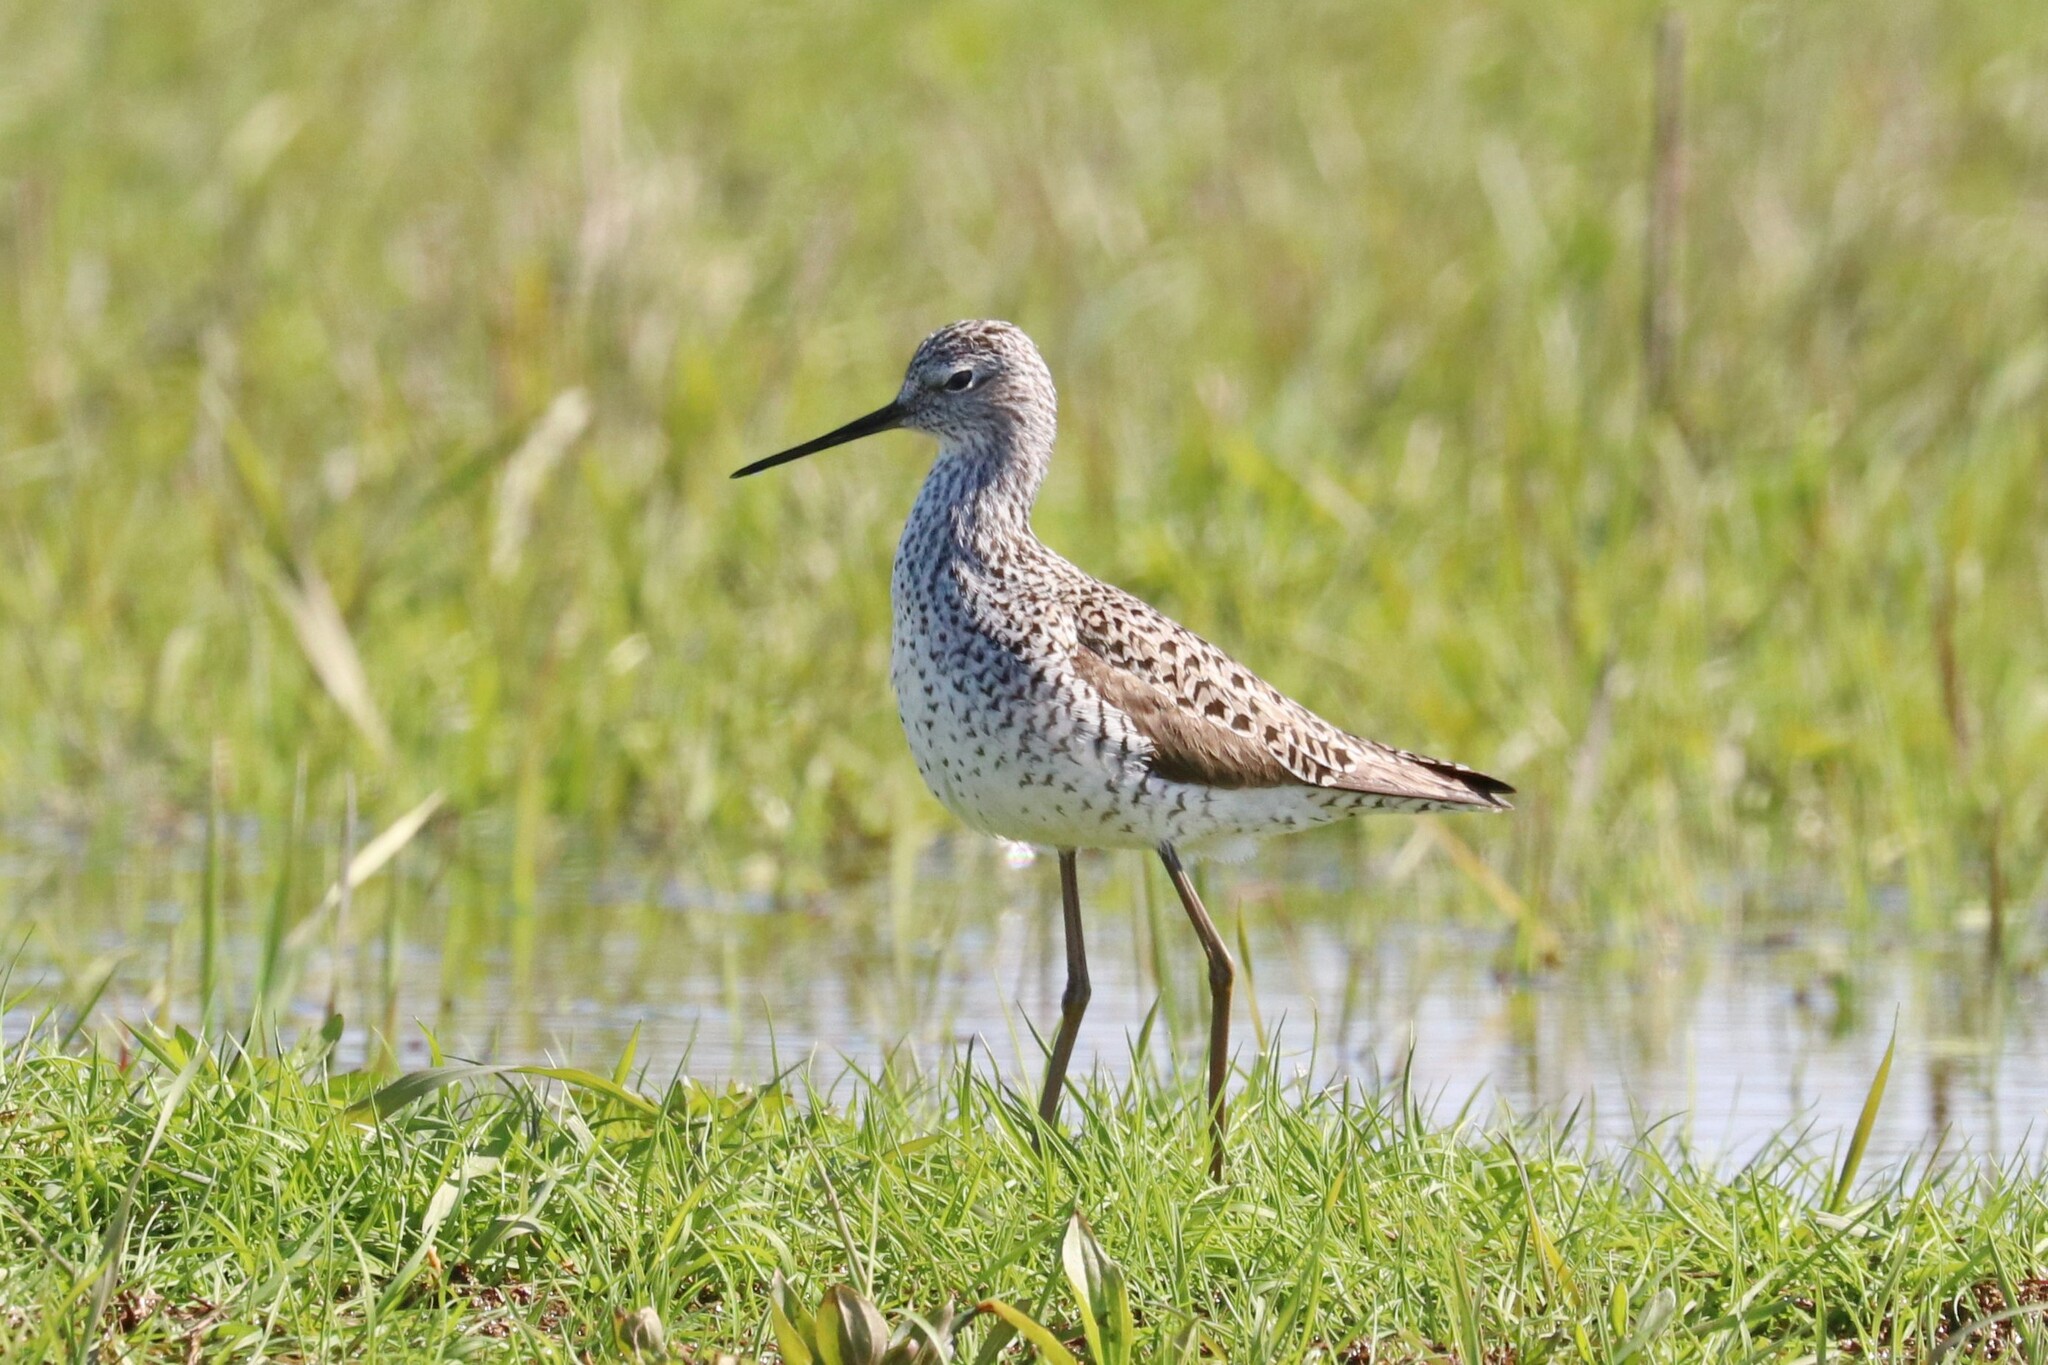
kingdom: Animalia
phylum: Chordata
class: Aves
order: Charadriiformes
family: Scolopacidae
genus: Tringa
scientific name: Tringa stagnatilis
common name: Marsh sandpiper
